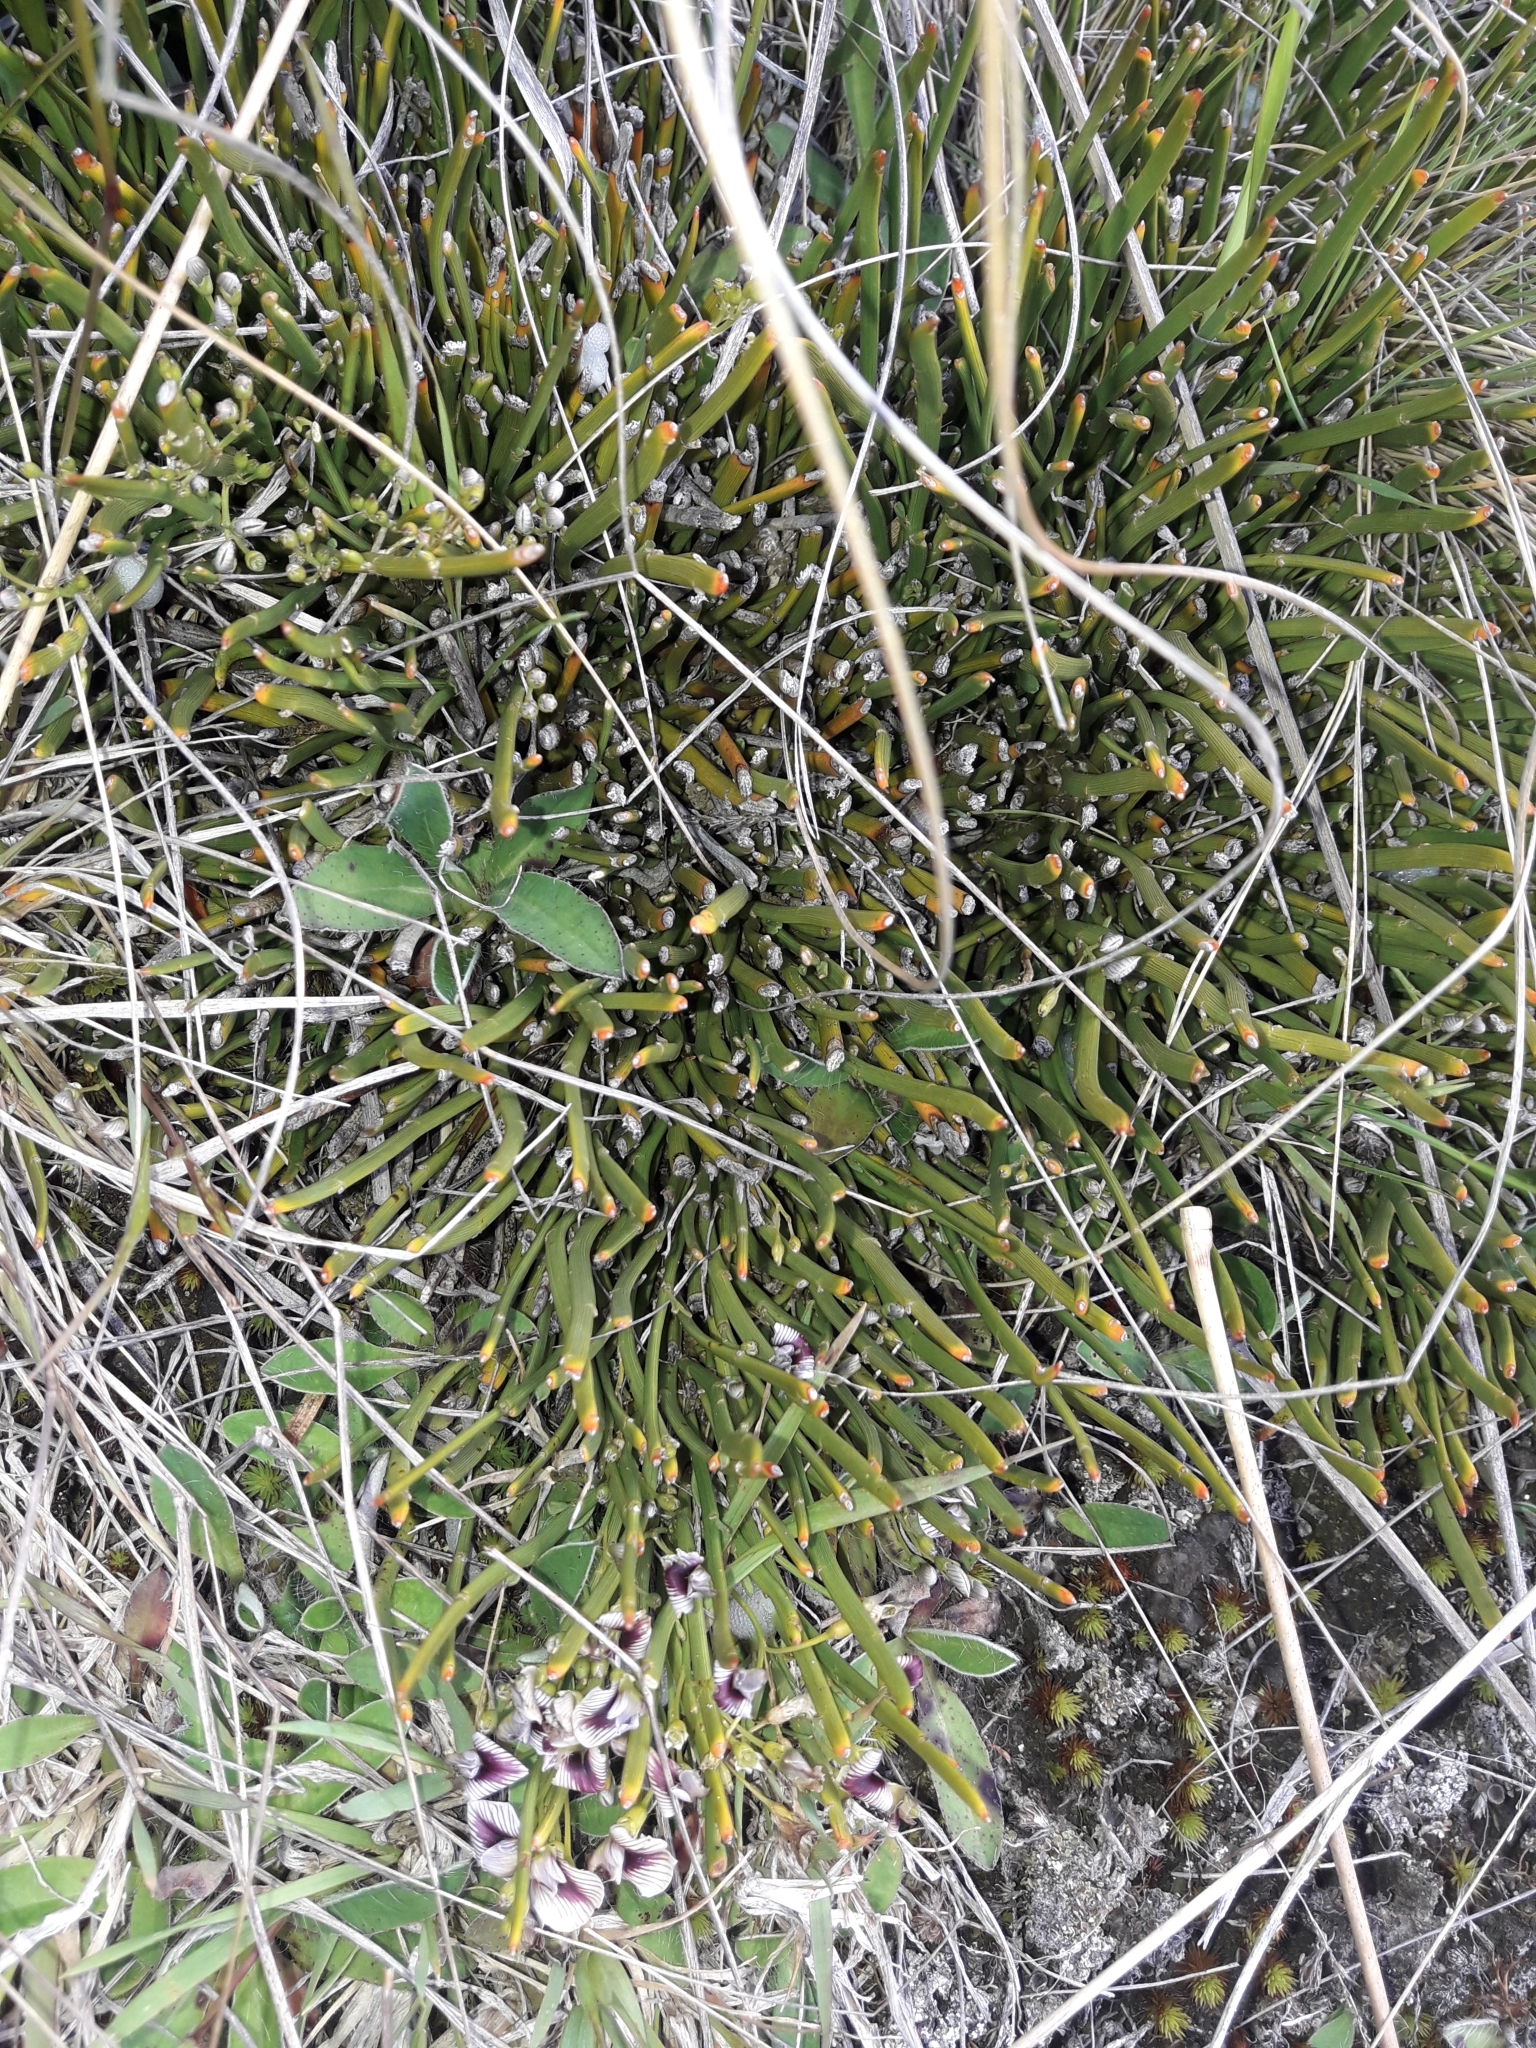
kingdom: Plantae
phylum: Tracheophyta
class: Magnoliopsida
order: Fabales
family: Fabaceae
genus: Carmichaelia
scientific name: Carmichaelia vexillata
